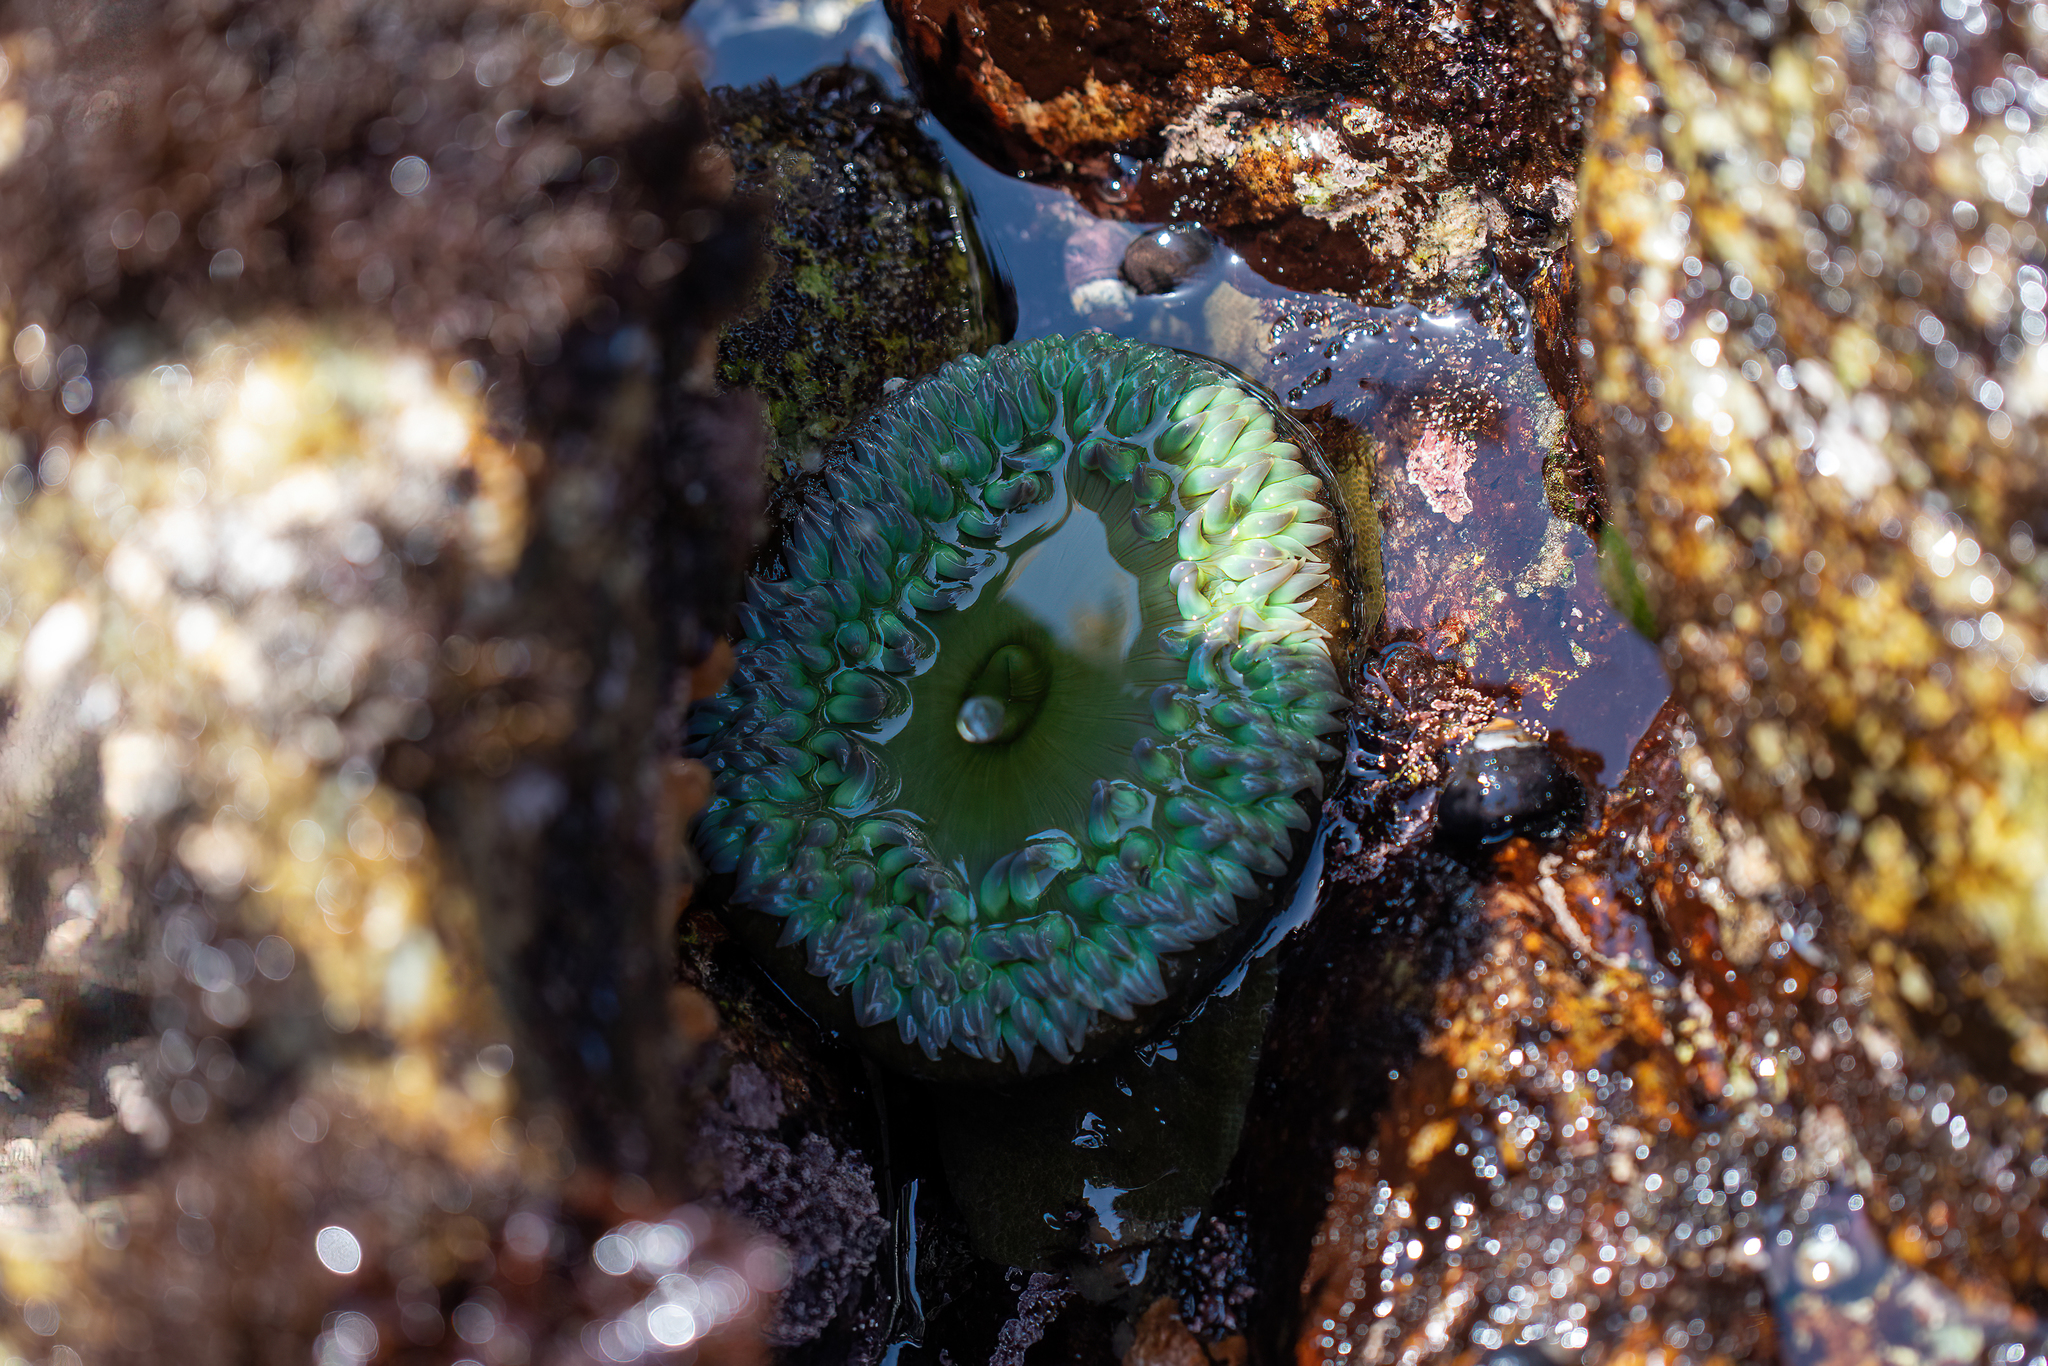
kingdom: Animalia
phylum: Cnidaria
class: Anthozoa
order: Actiniaria
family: Actiniidae
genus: Anthopleura
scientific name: Anthopleura xanthogrammica
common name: Giant green anemone
